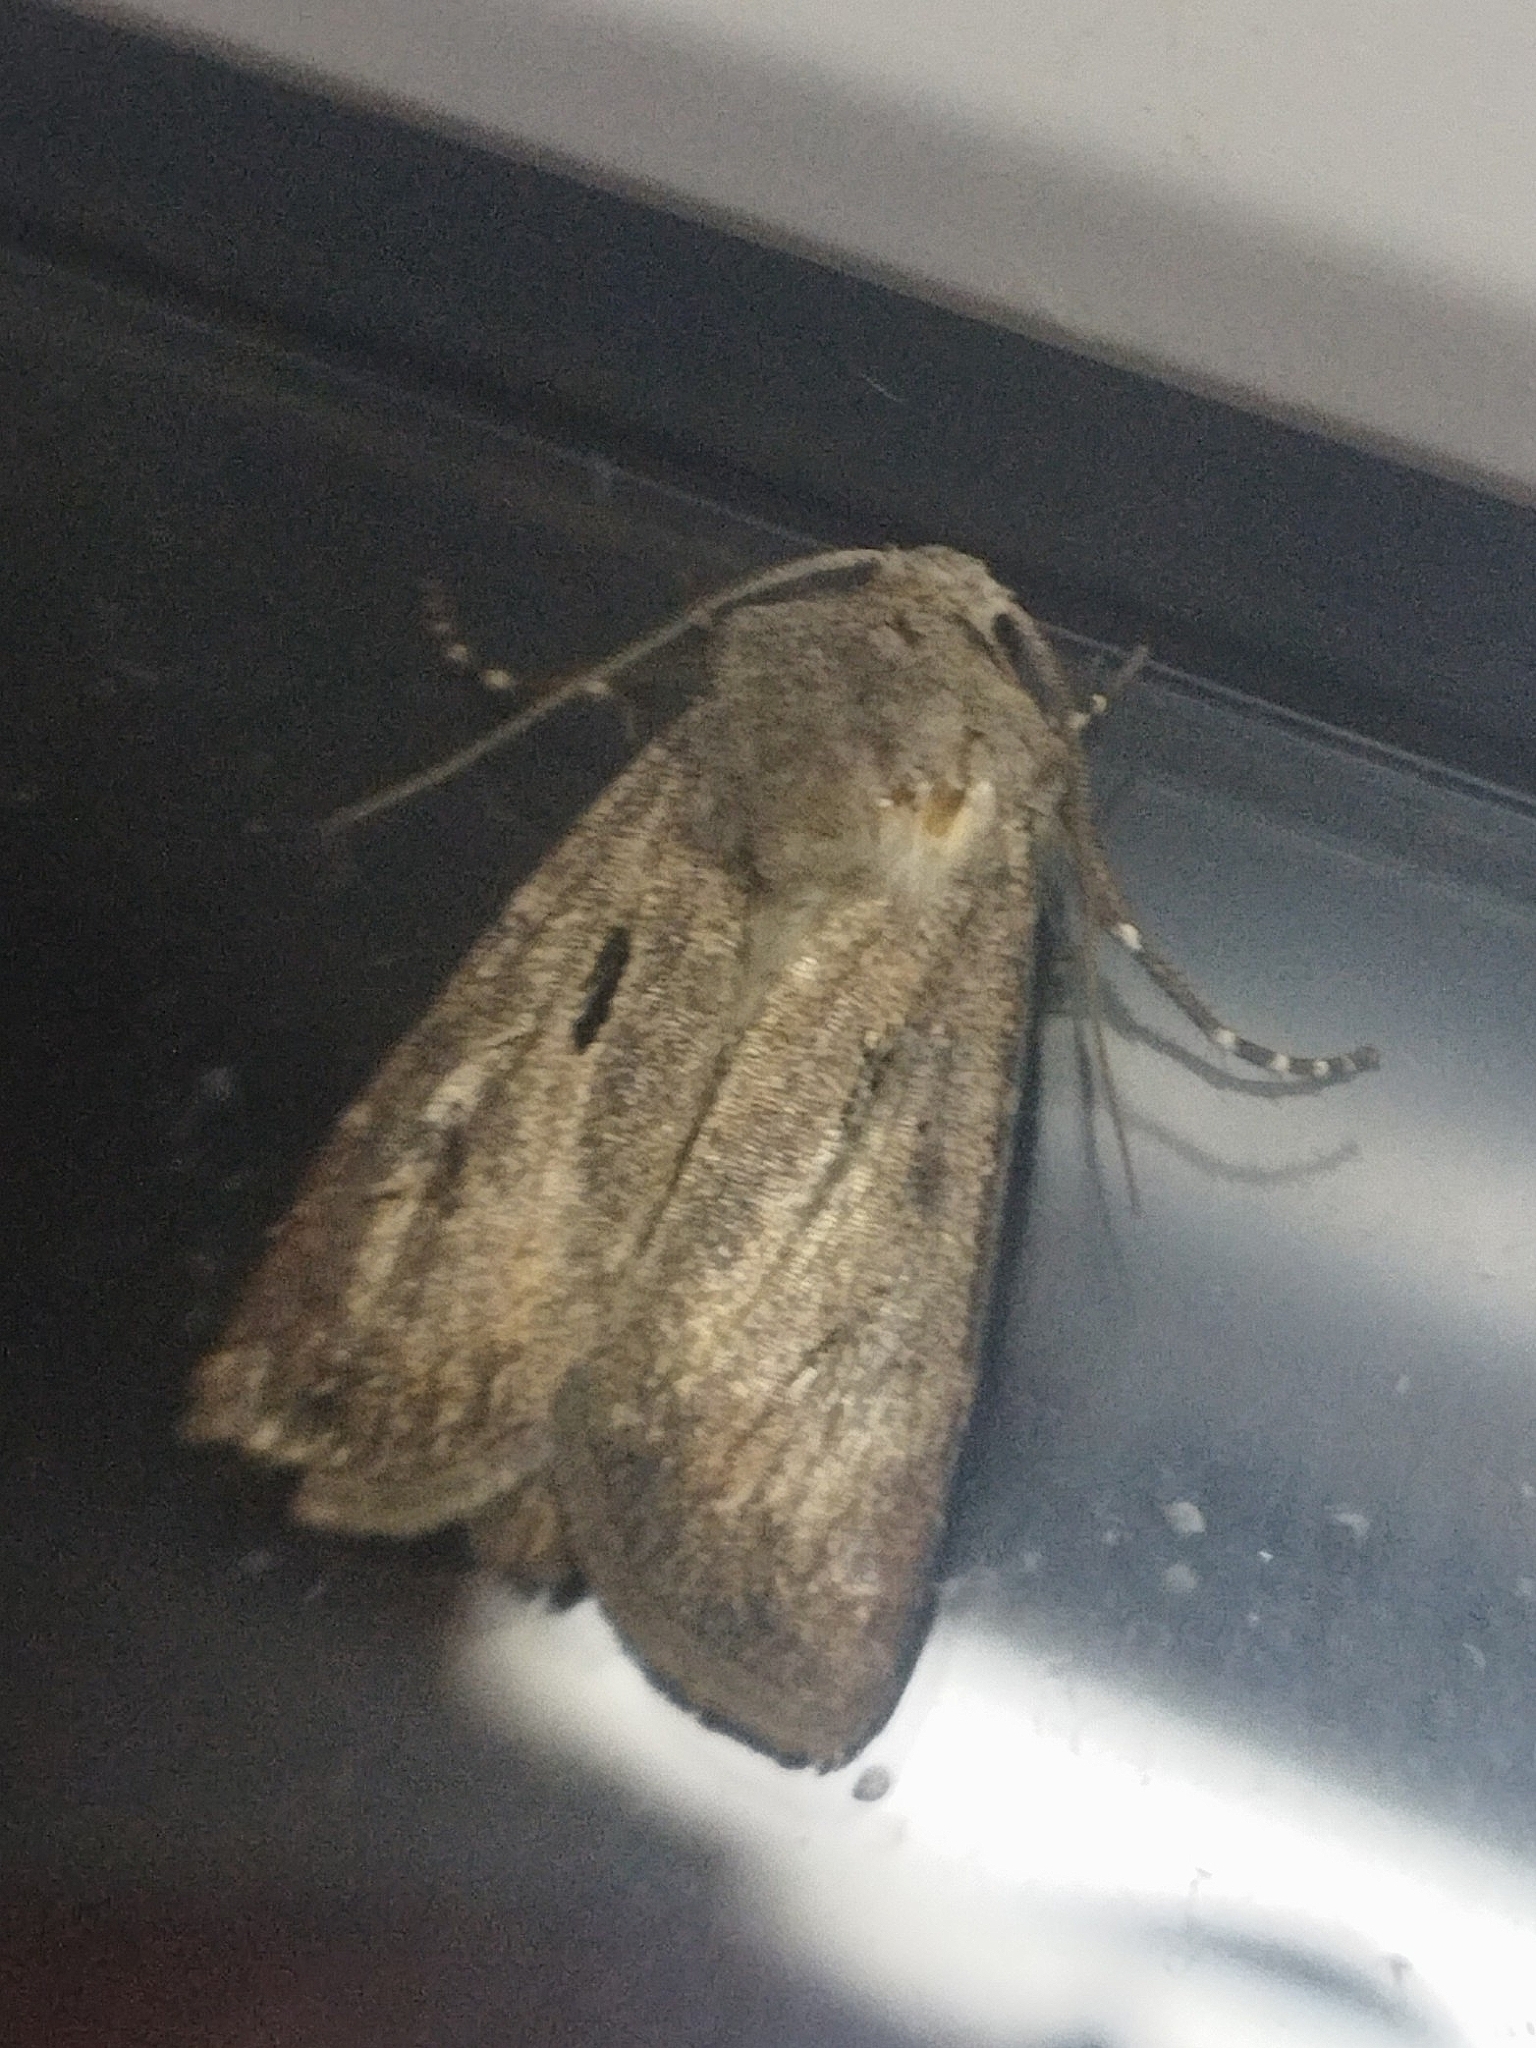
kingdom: Animalia
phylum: Arthropoda
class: Insecta
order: Lepidoptera
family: Noctuidae
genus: Agrotis
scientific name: Agrotis exclamationis
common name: Heart and dart
